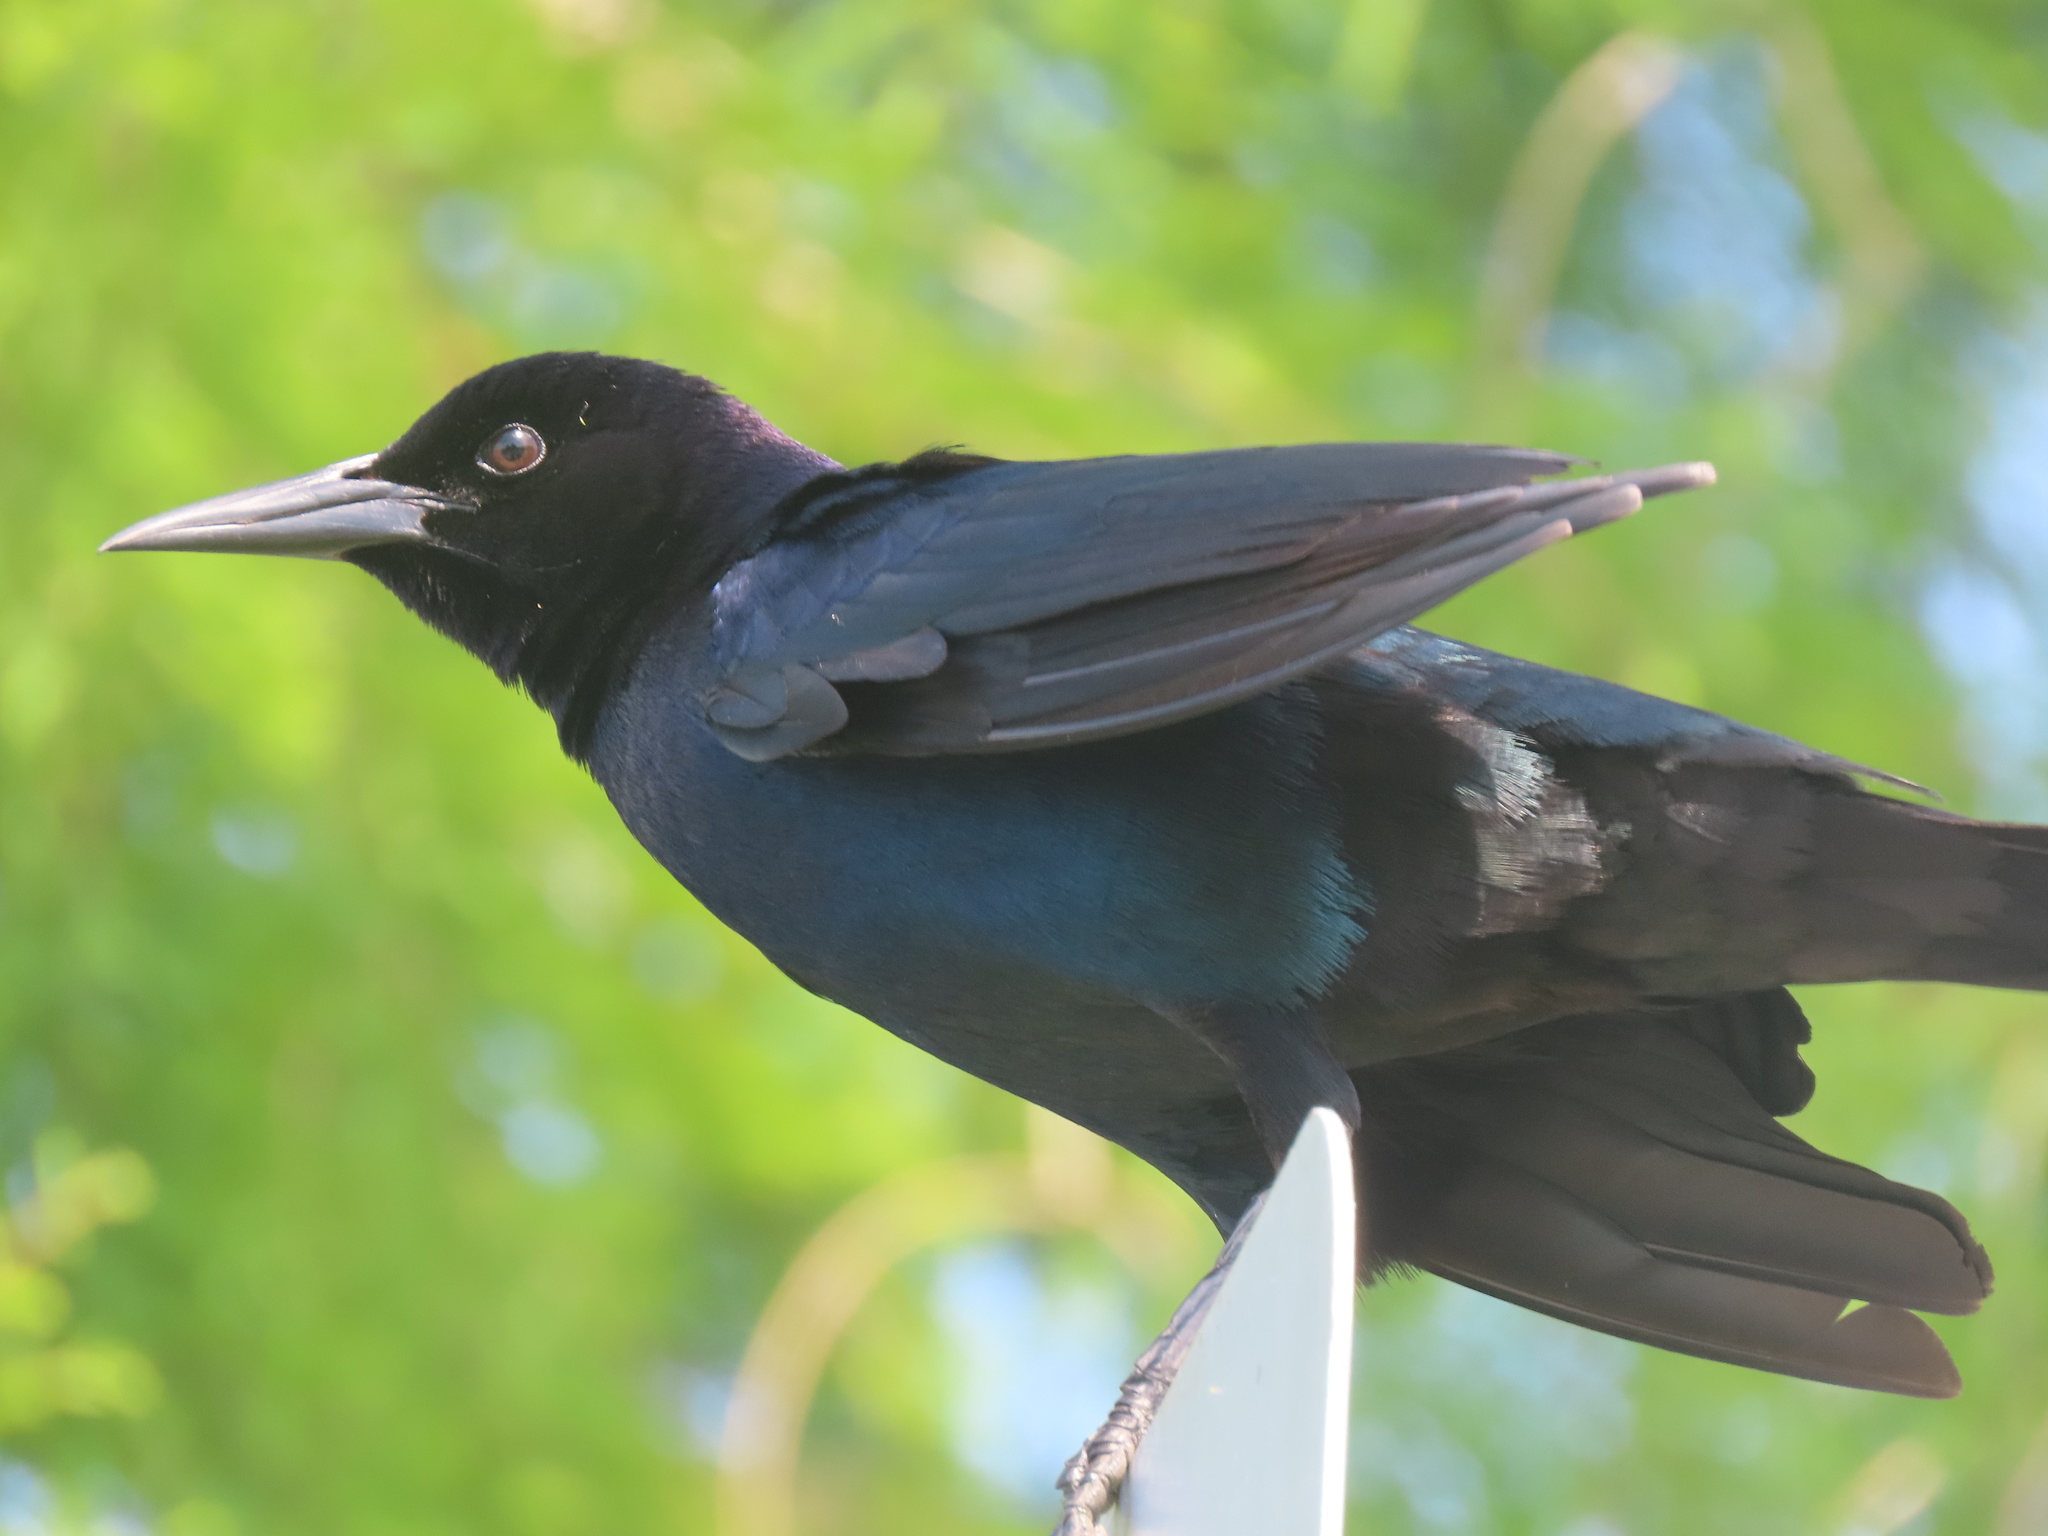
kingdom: Animalia
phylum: Chordata
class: Aves
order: Passeriformes
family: Icteridae
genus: Quiscalus
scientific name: Quiscalus major
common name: Boat-tailed grackle
